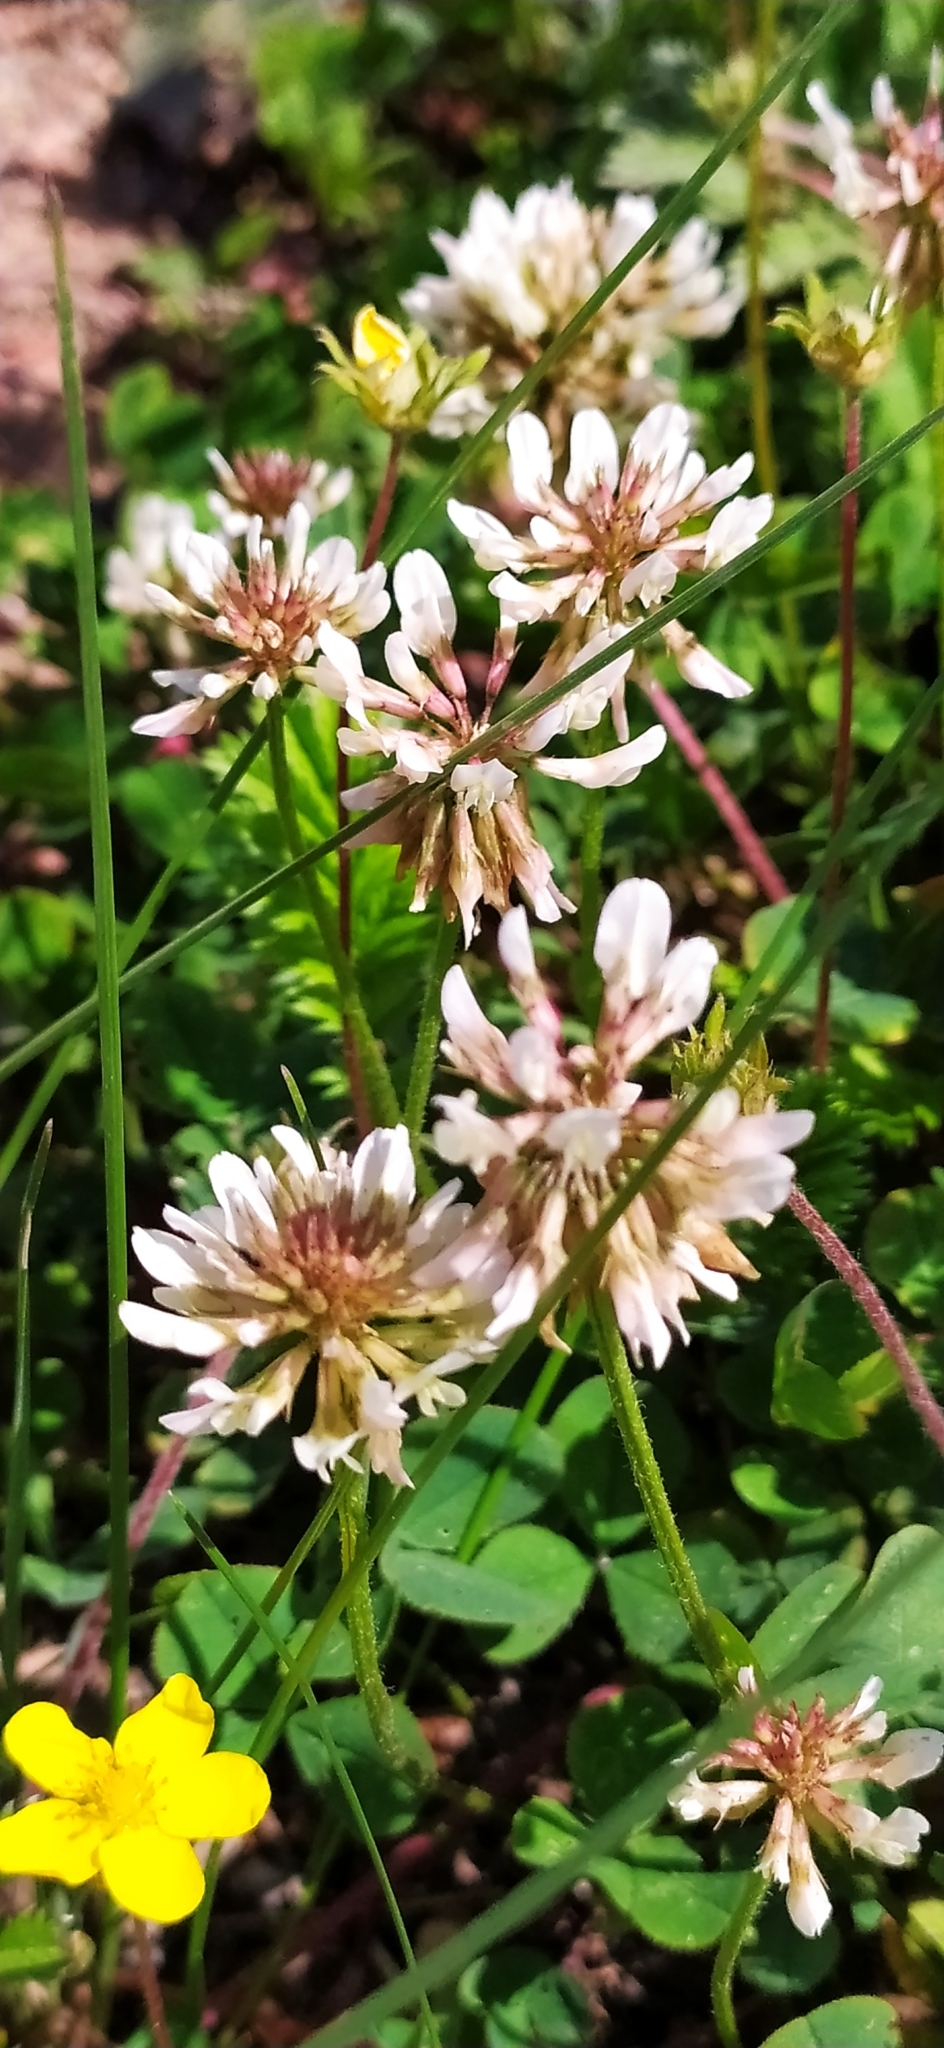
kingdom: Plantae
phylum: Tracheophyta
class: Magnoliopsida
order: Fabales
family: Fabaceae
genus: Trifolium
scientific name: Trifolium repens
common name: White clover
